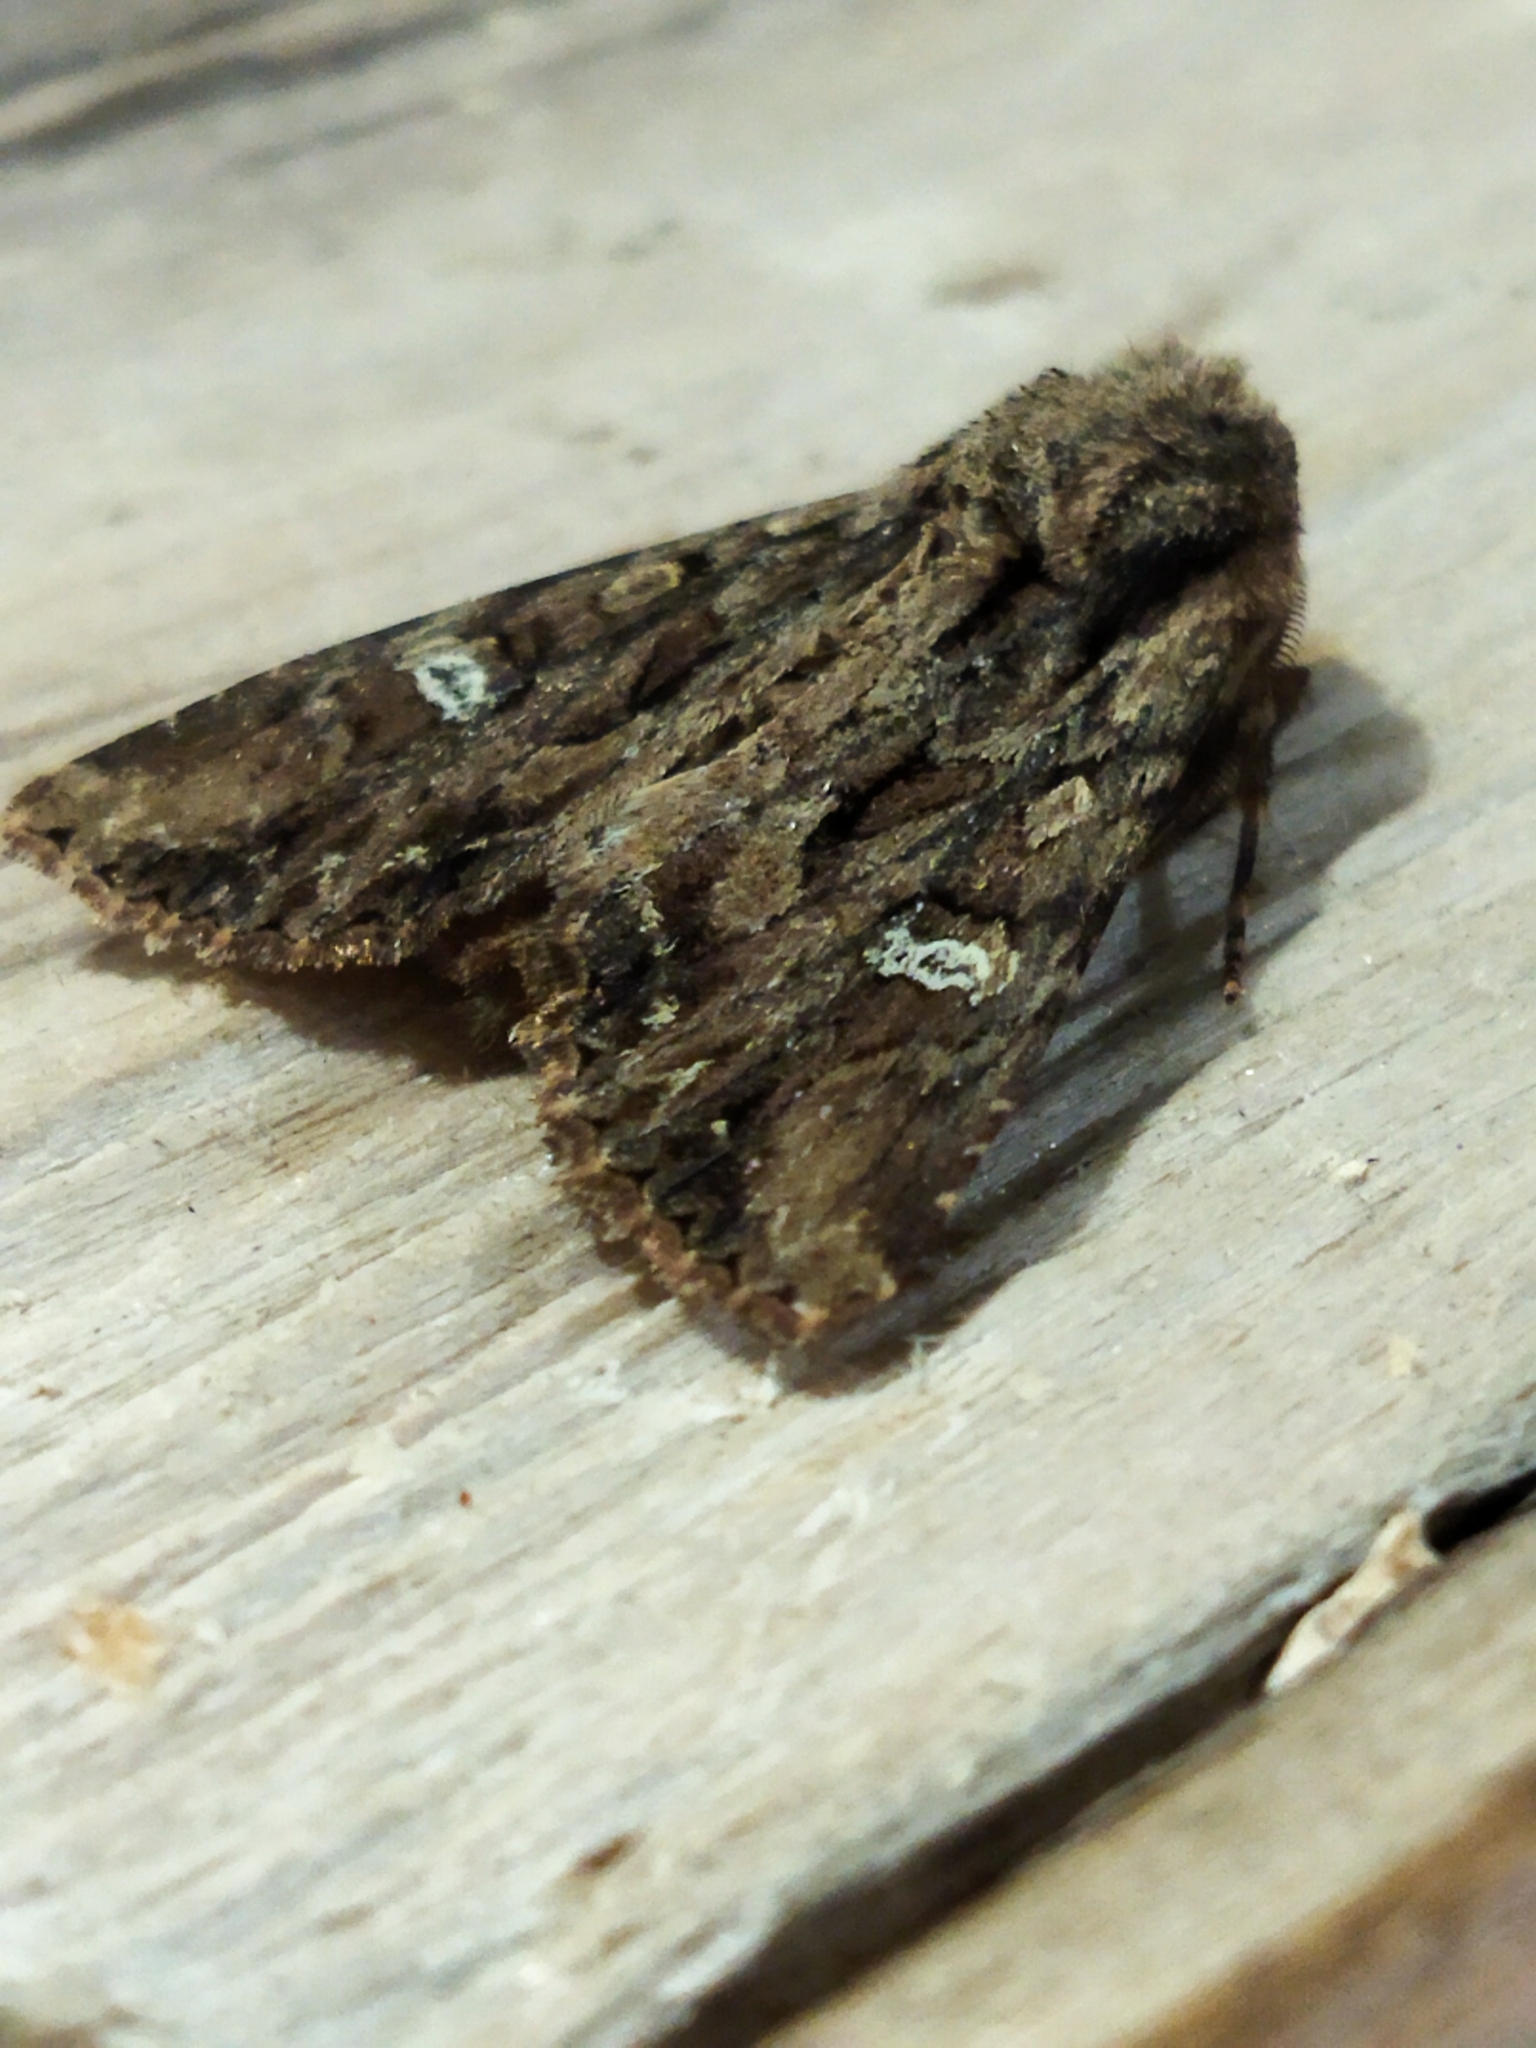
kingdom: Animalia
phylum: Arthropoda
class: Insecta
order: Lepidoptera
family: Noctuidae
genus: Polymixis
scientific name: Polymixis trisignata
